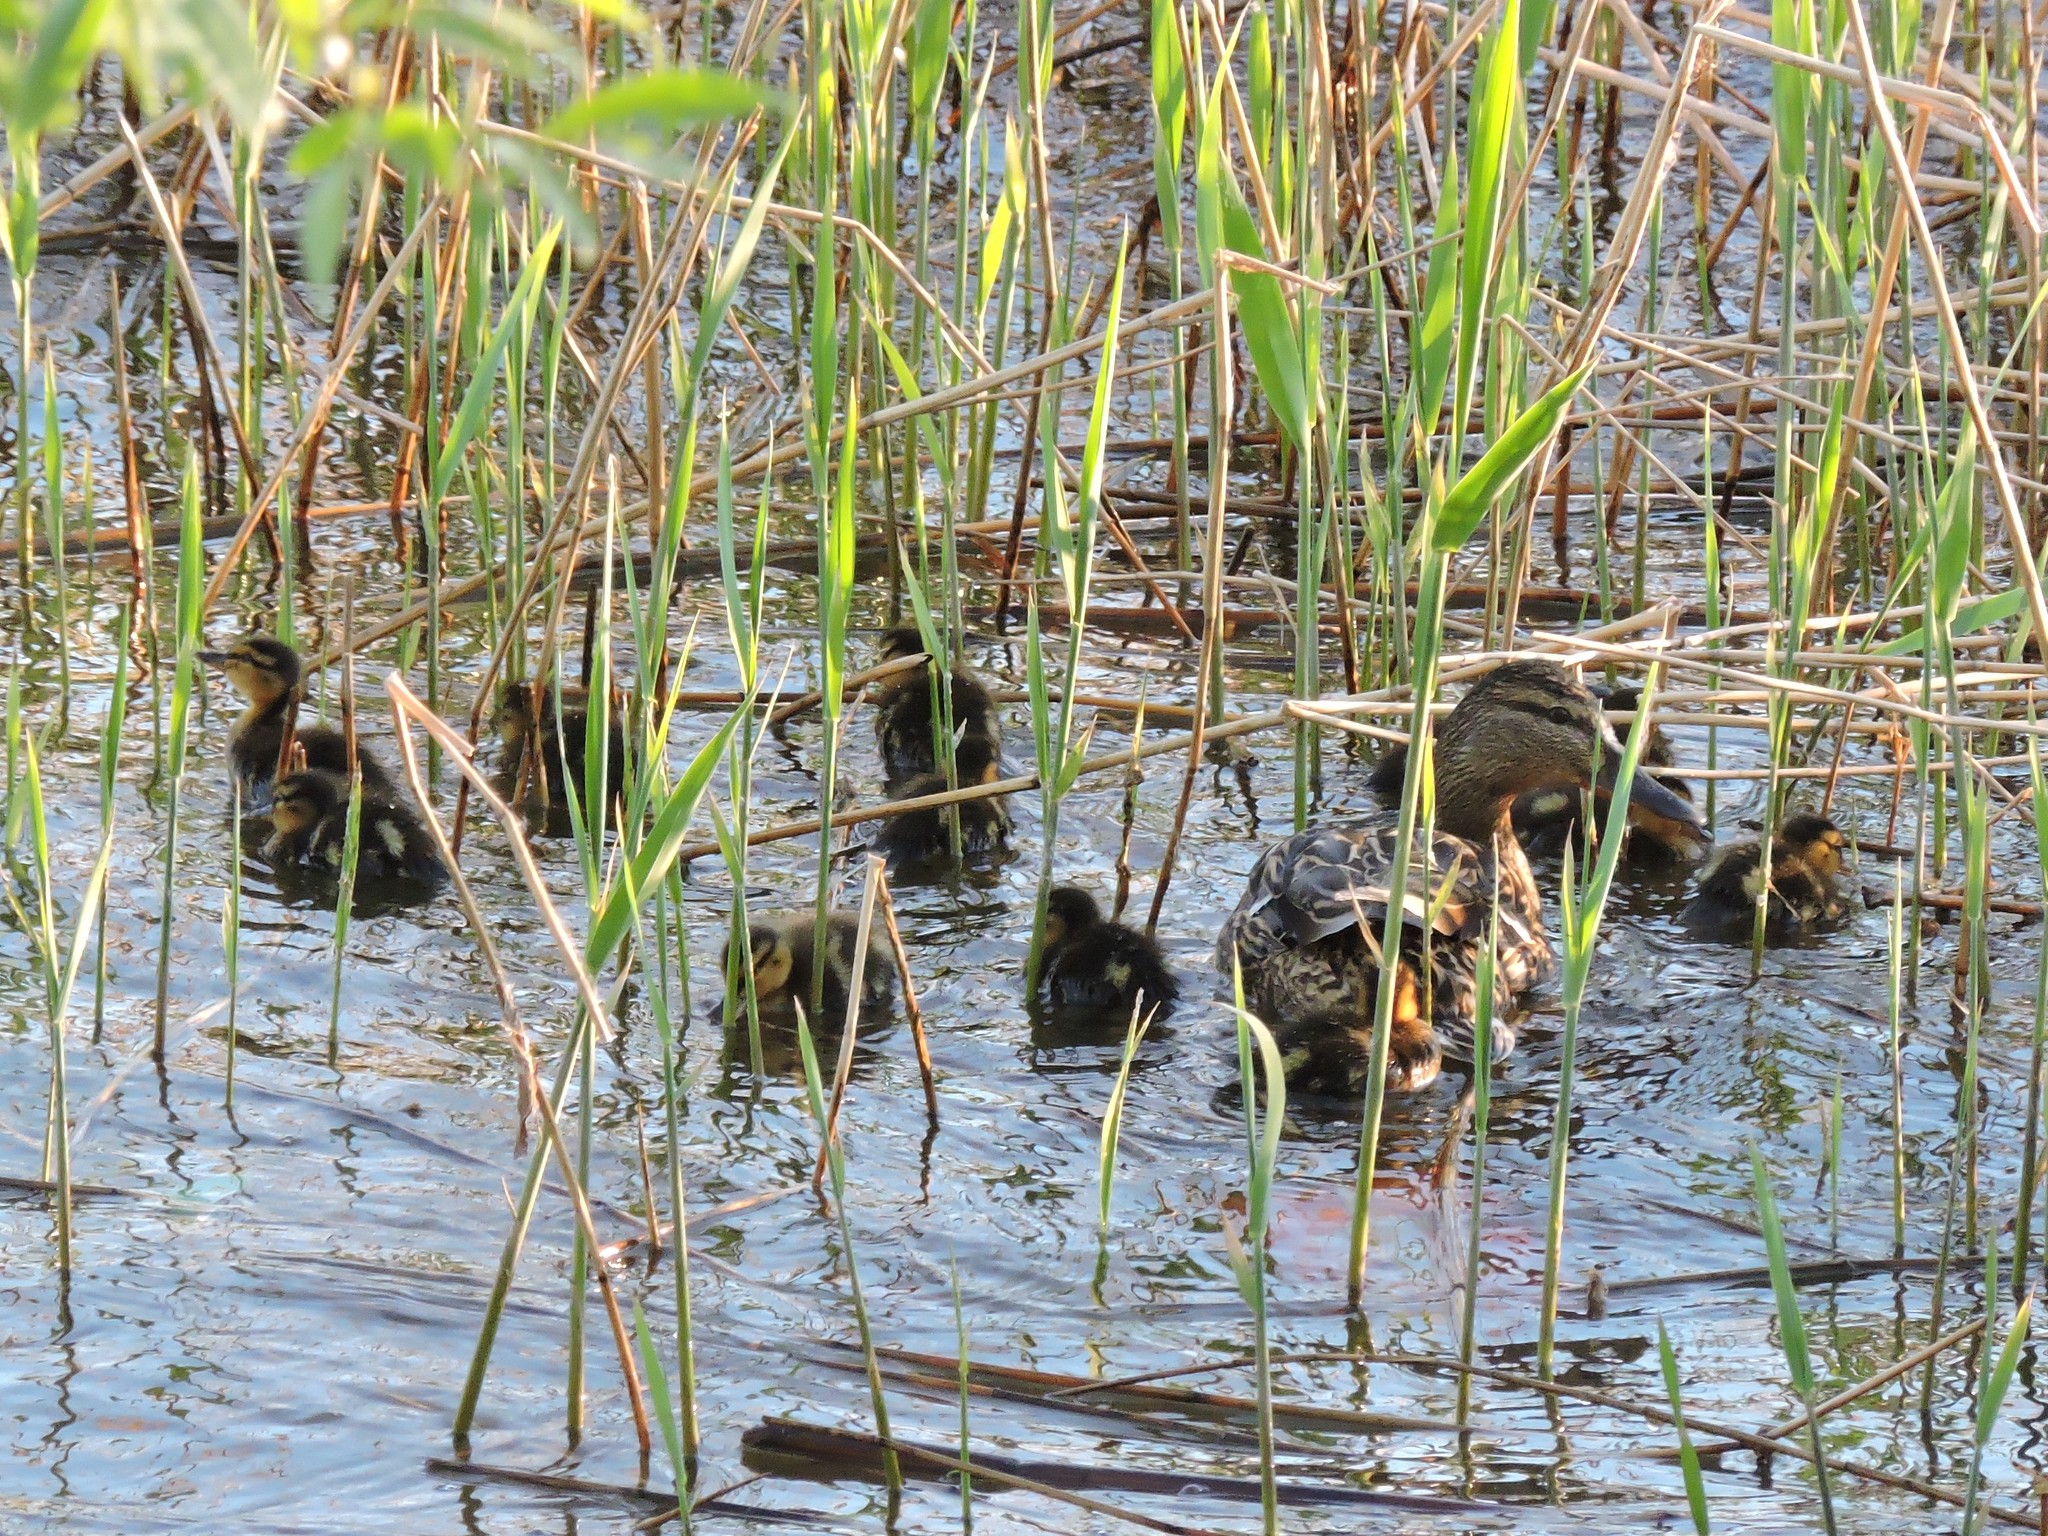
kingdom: Animalia
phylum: Chordata
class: Aves
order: Anseriformes
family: Anatidae
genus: Anas
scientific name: Anas platyrhynchos
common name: Mallard
